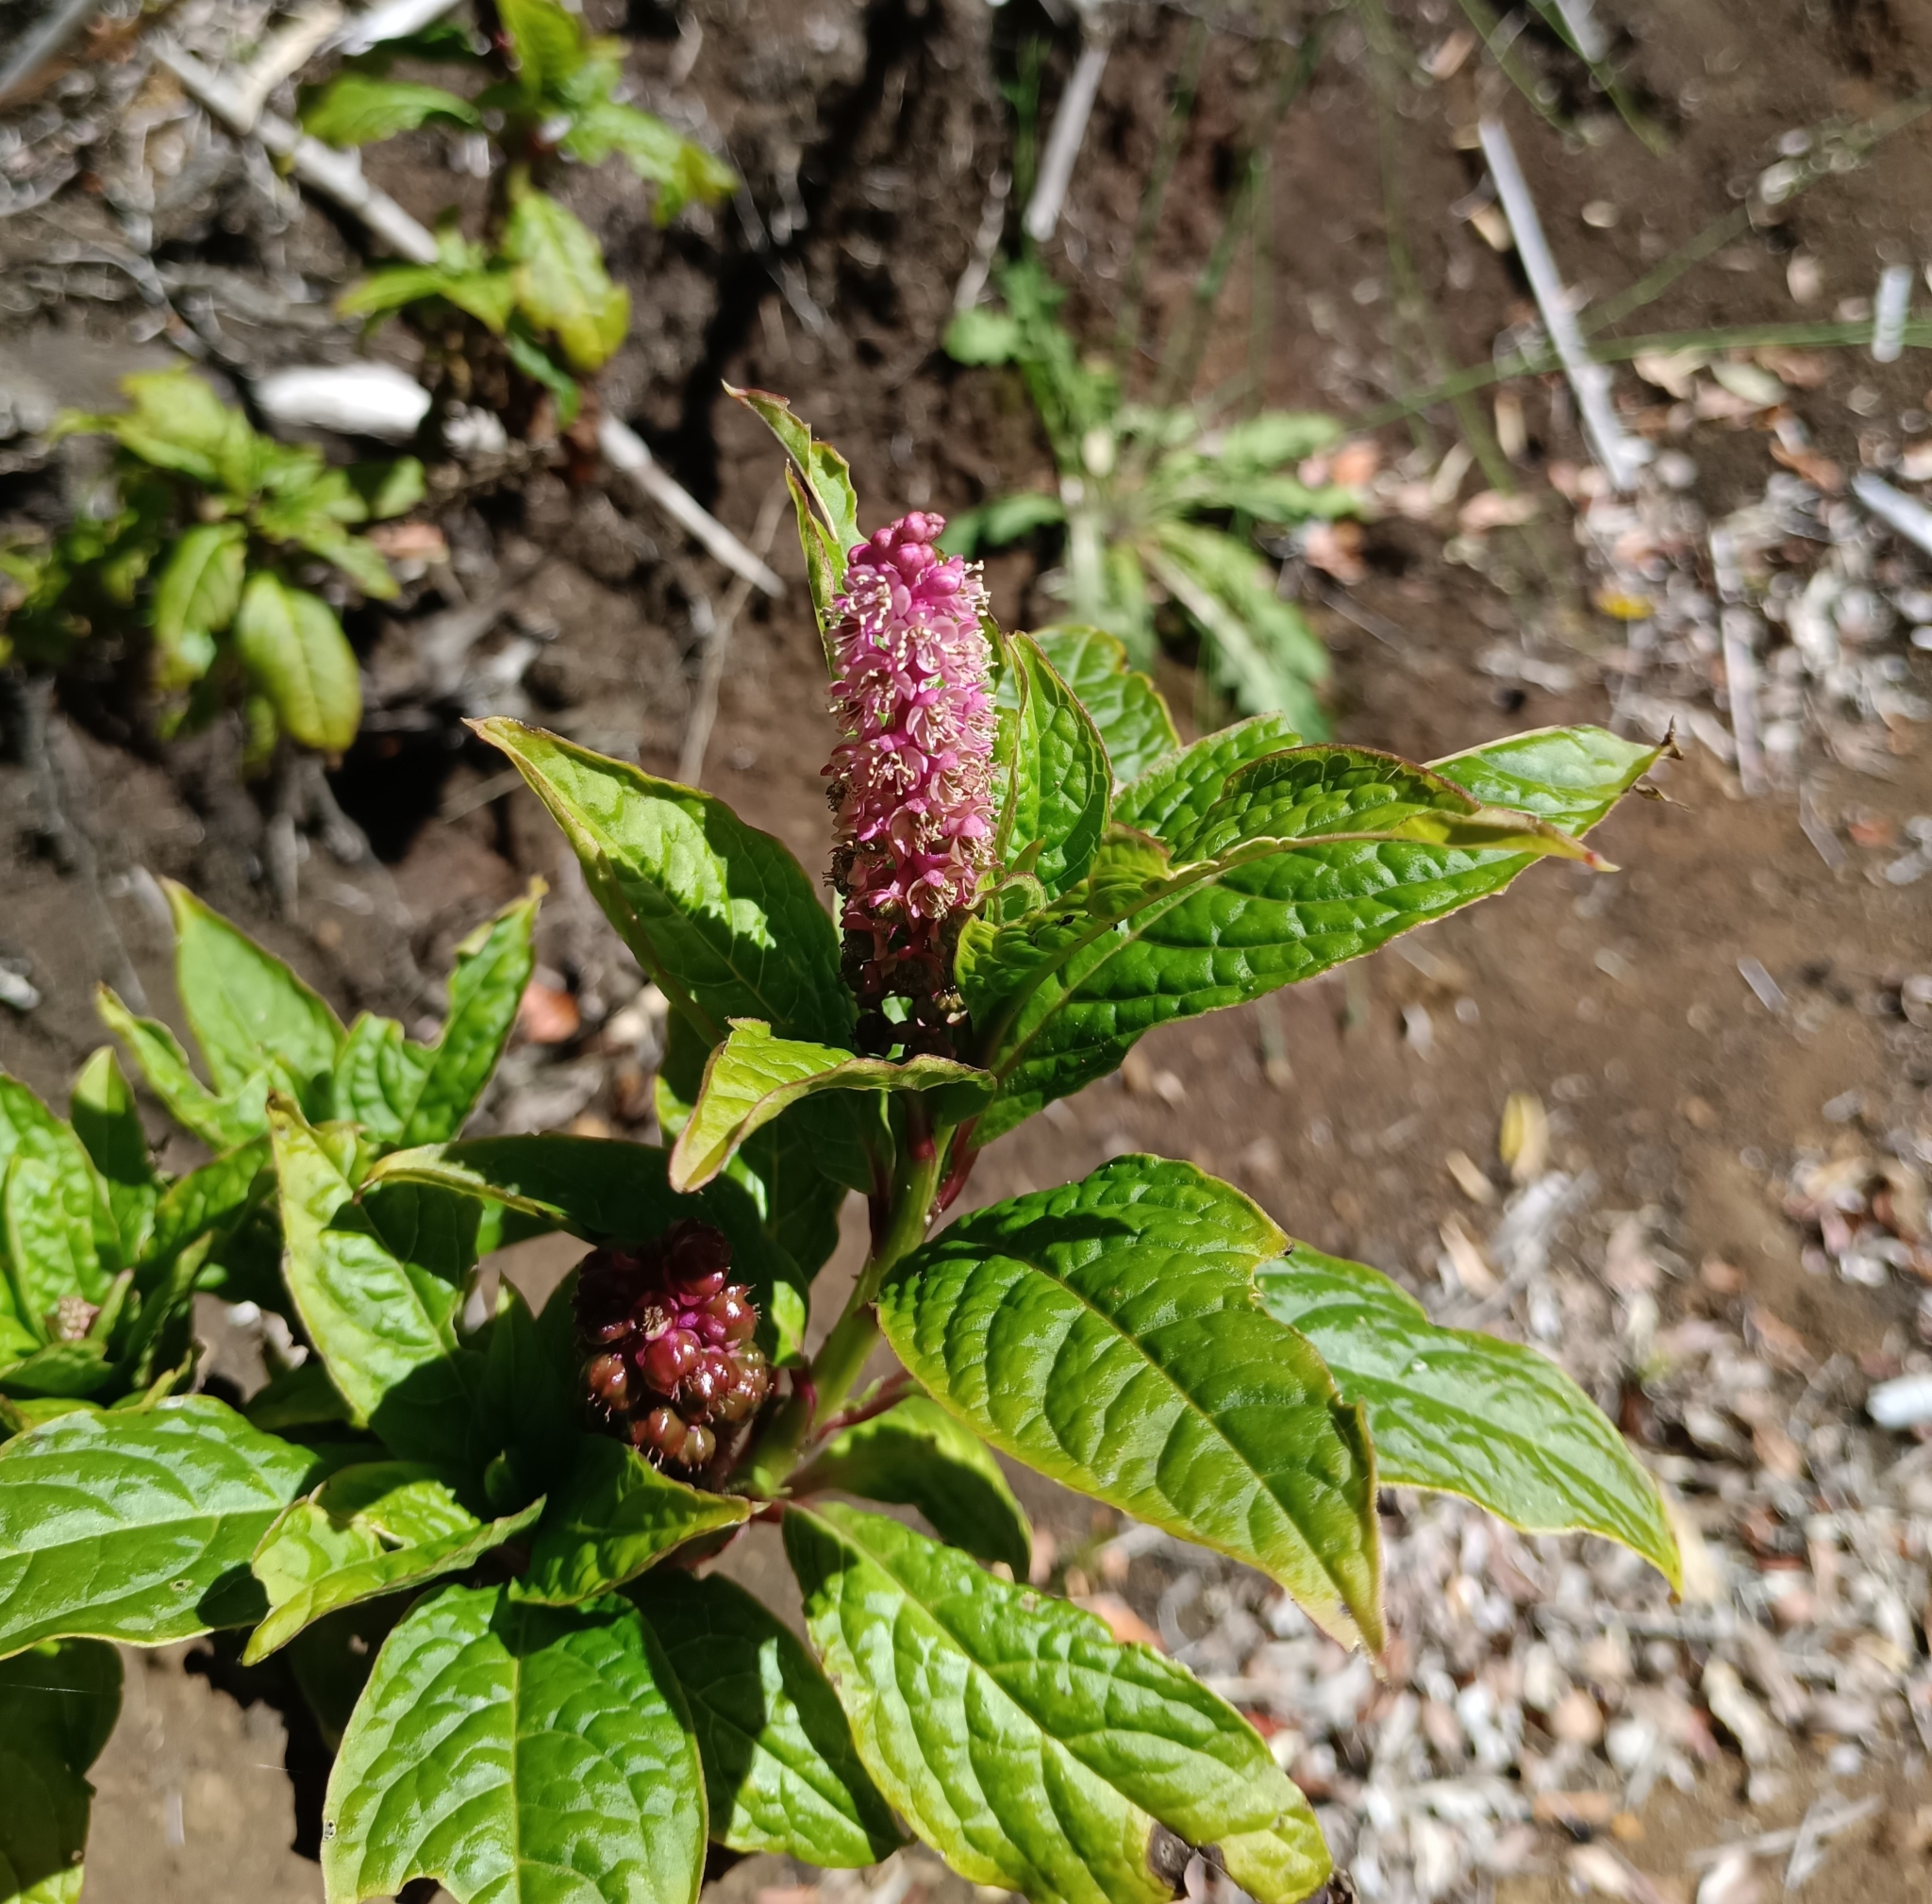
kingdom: Plantae
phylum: Tracheophyta
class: Magnoliopsida
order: Caryophyllales
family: Phytolaccaceae
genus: Phytolacca
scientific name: Phytolacca bogotensis
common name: Southern pokeweed
